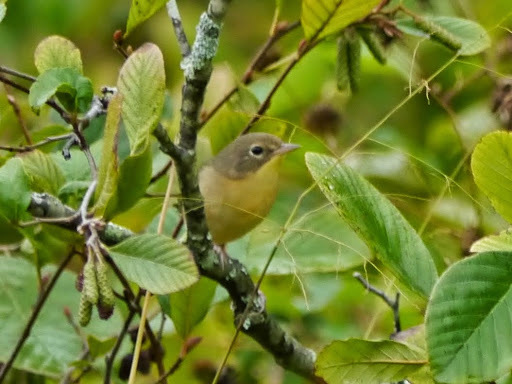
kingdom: Animalia
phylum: Chordata
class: Aves
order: Passeriformes
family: Parulidae
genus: Geothlypis
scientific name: Geothlypis trichas
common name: Common yellowthroat
